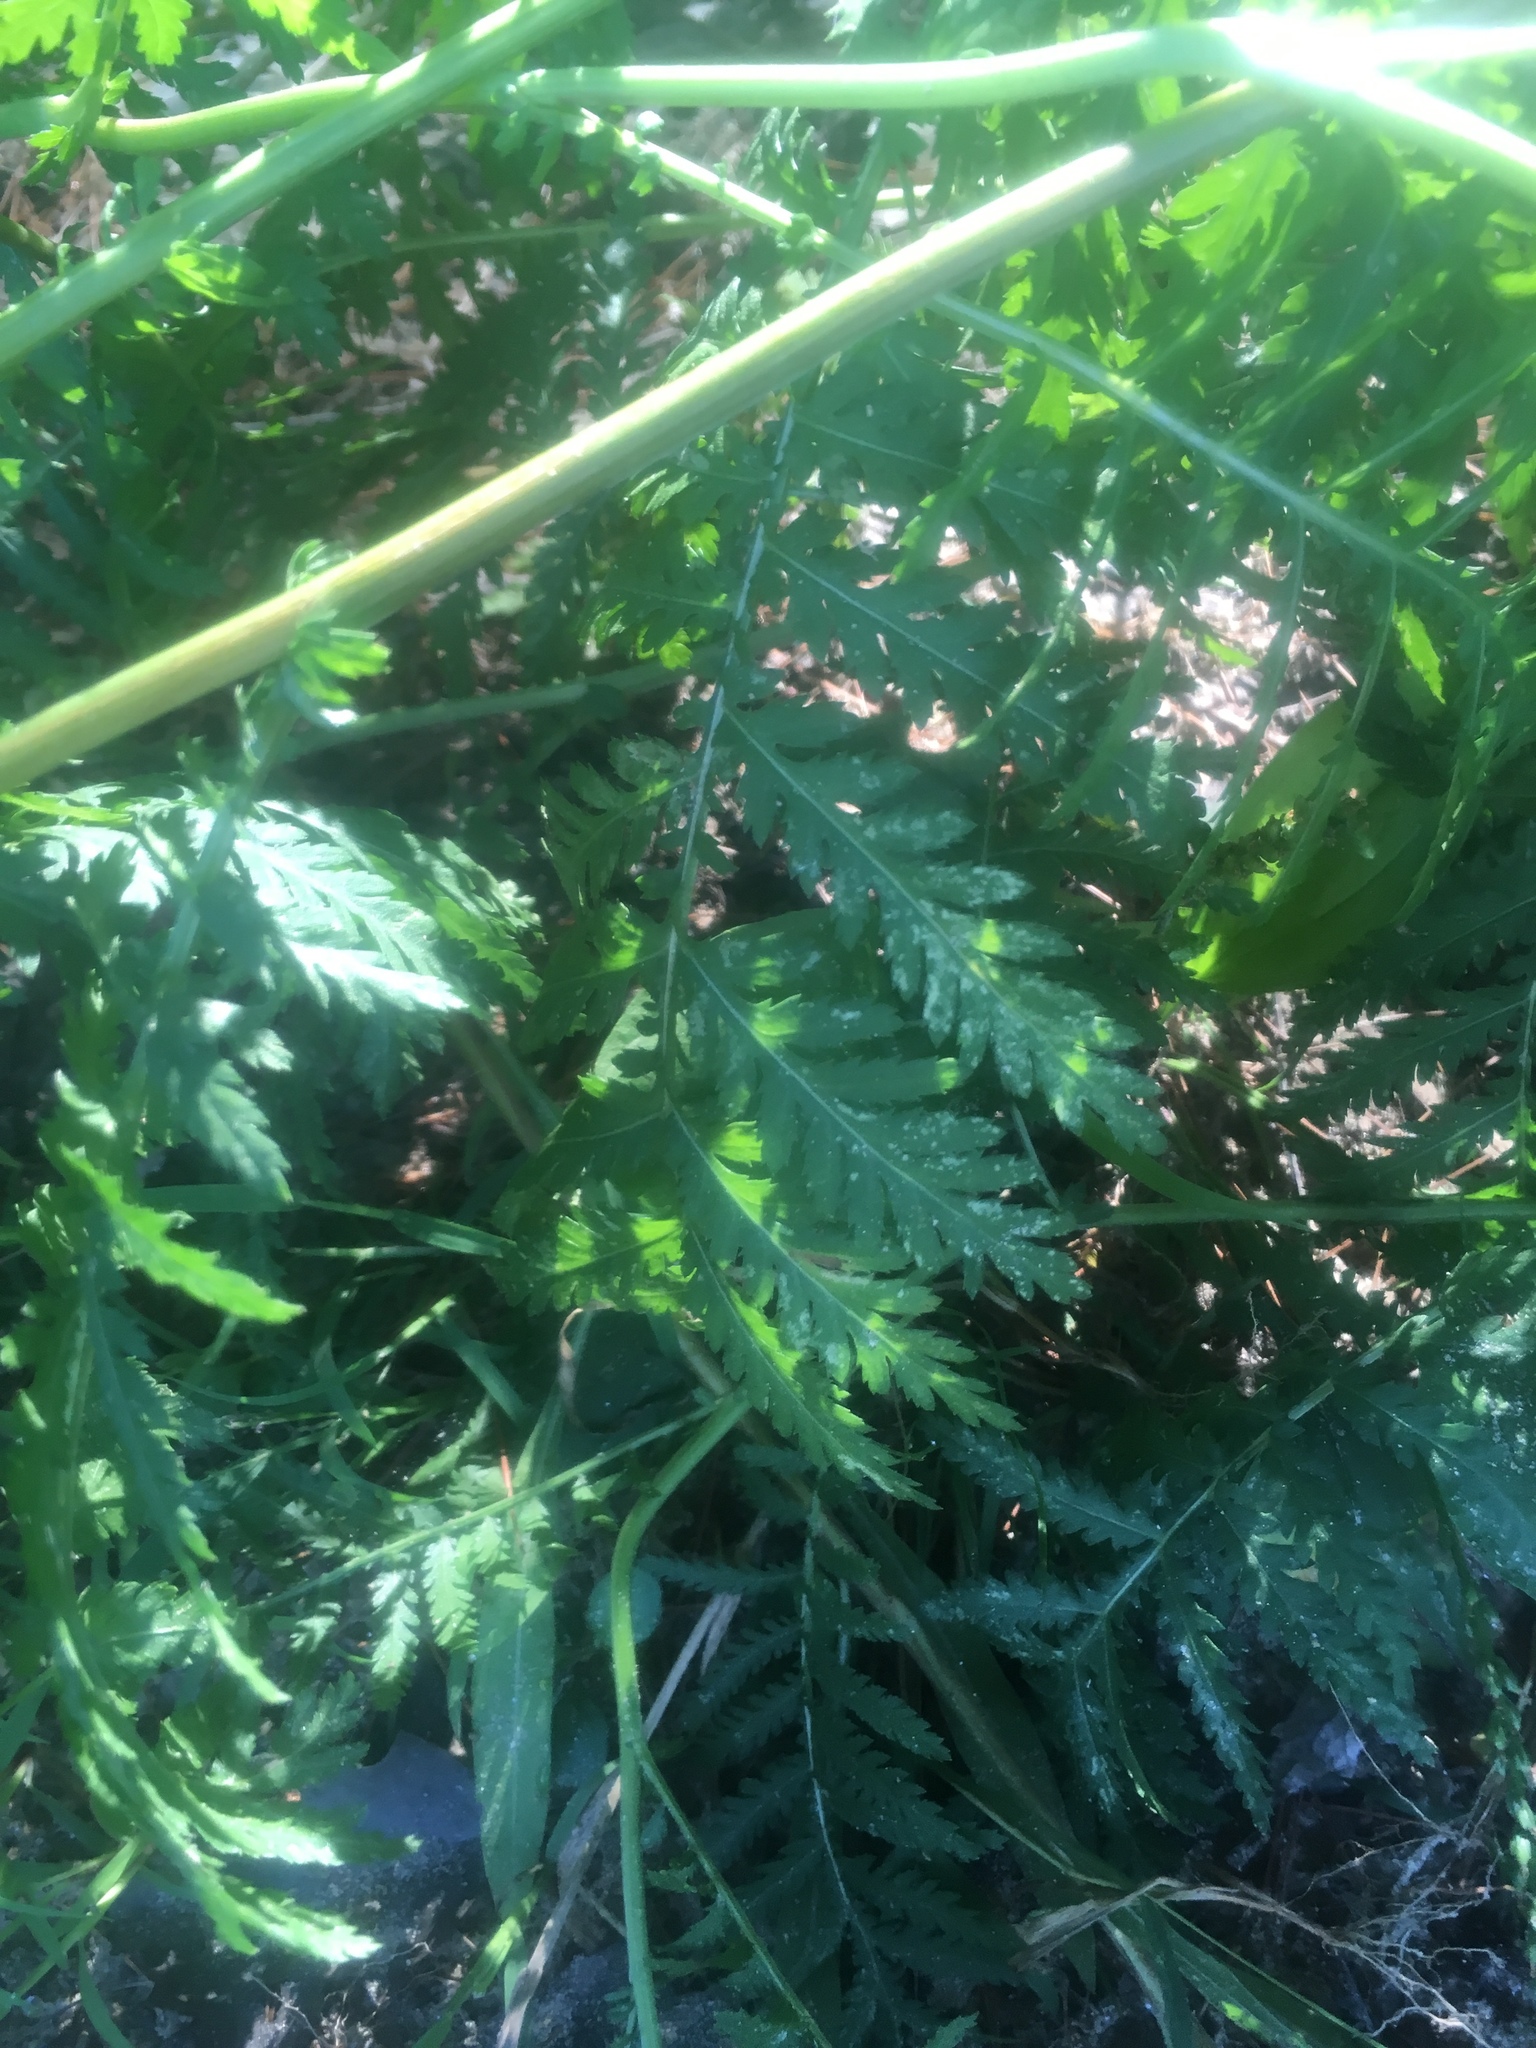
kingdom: Plantae
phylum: Tracheophyta
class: Magnoliopsida
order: Asterales
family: Asteraceae
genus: Tanacetum
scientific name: Tanacetum vulgare
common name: Common tansy
